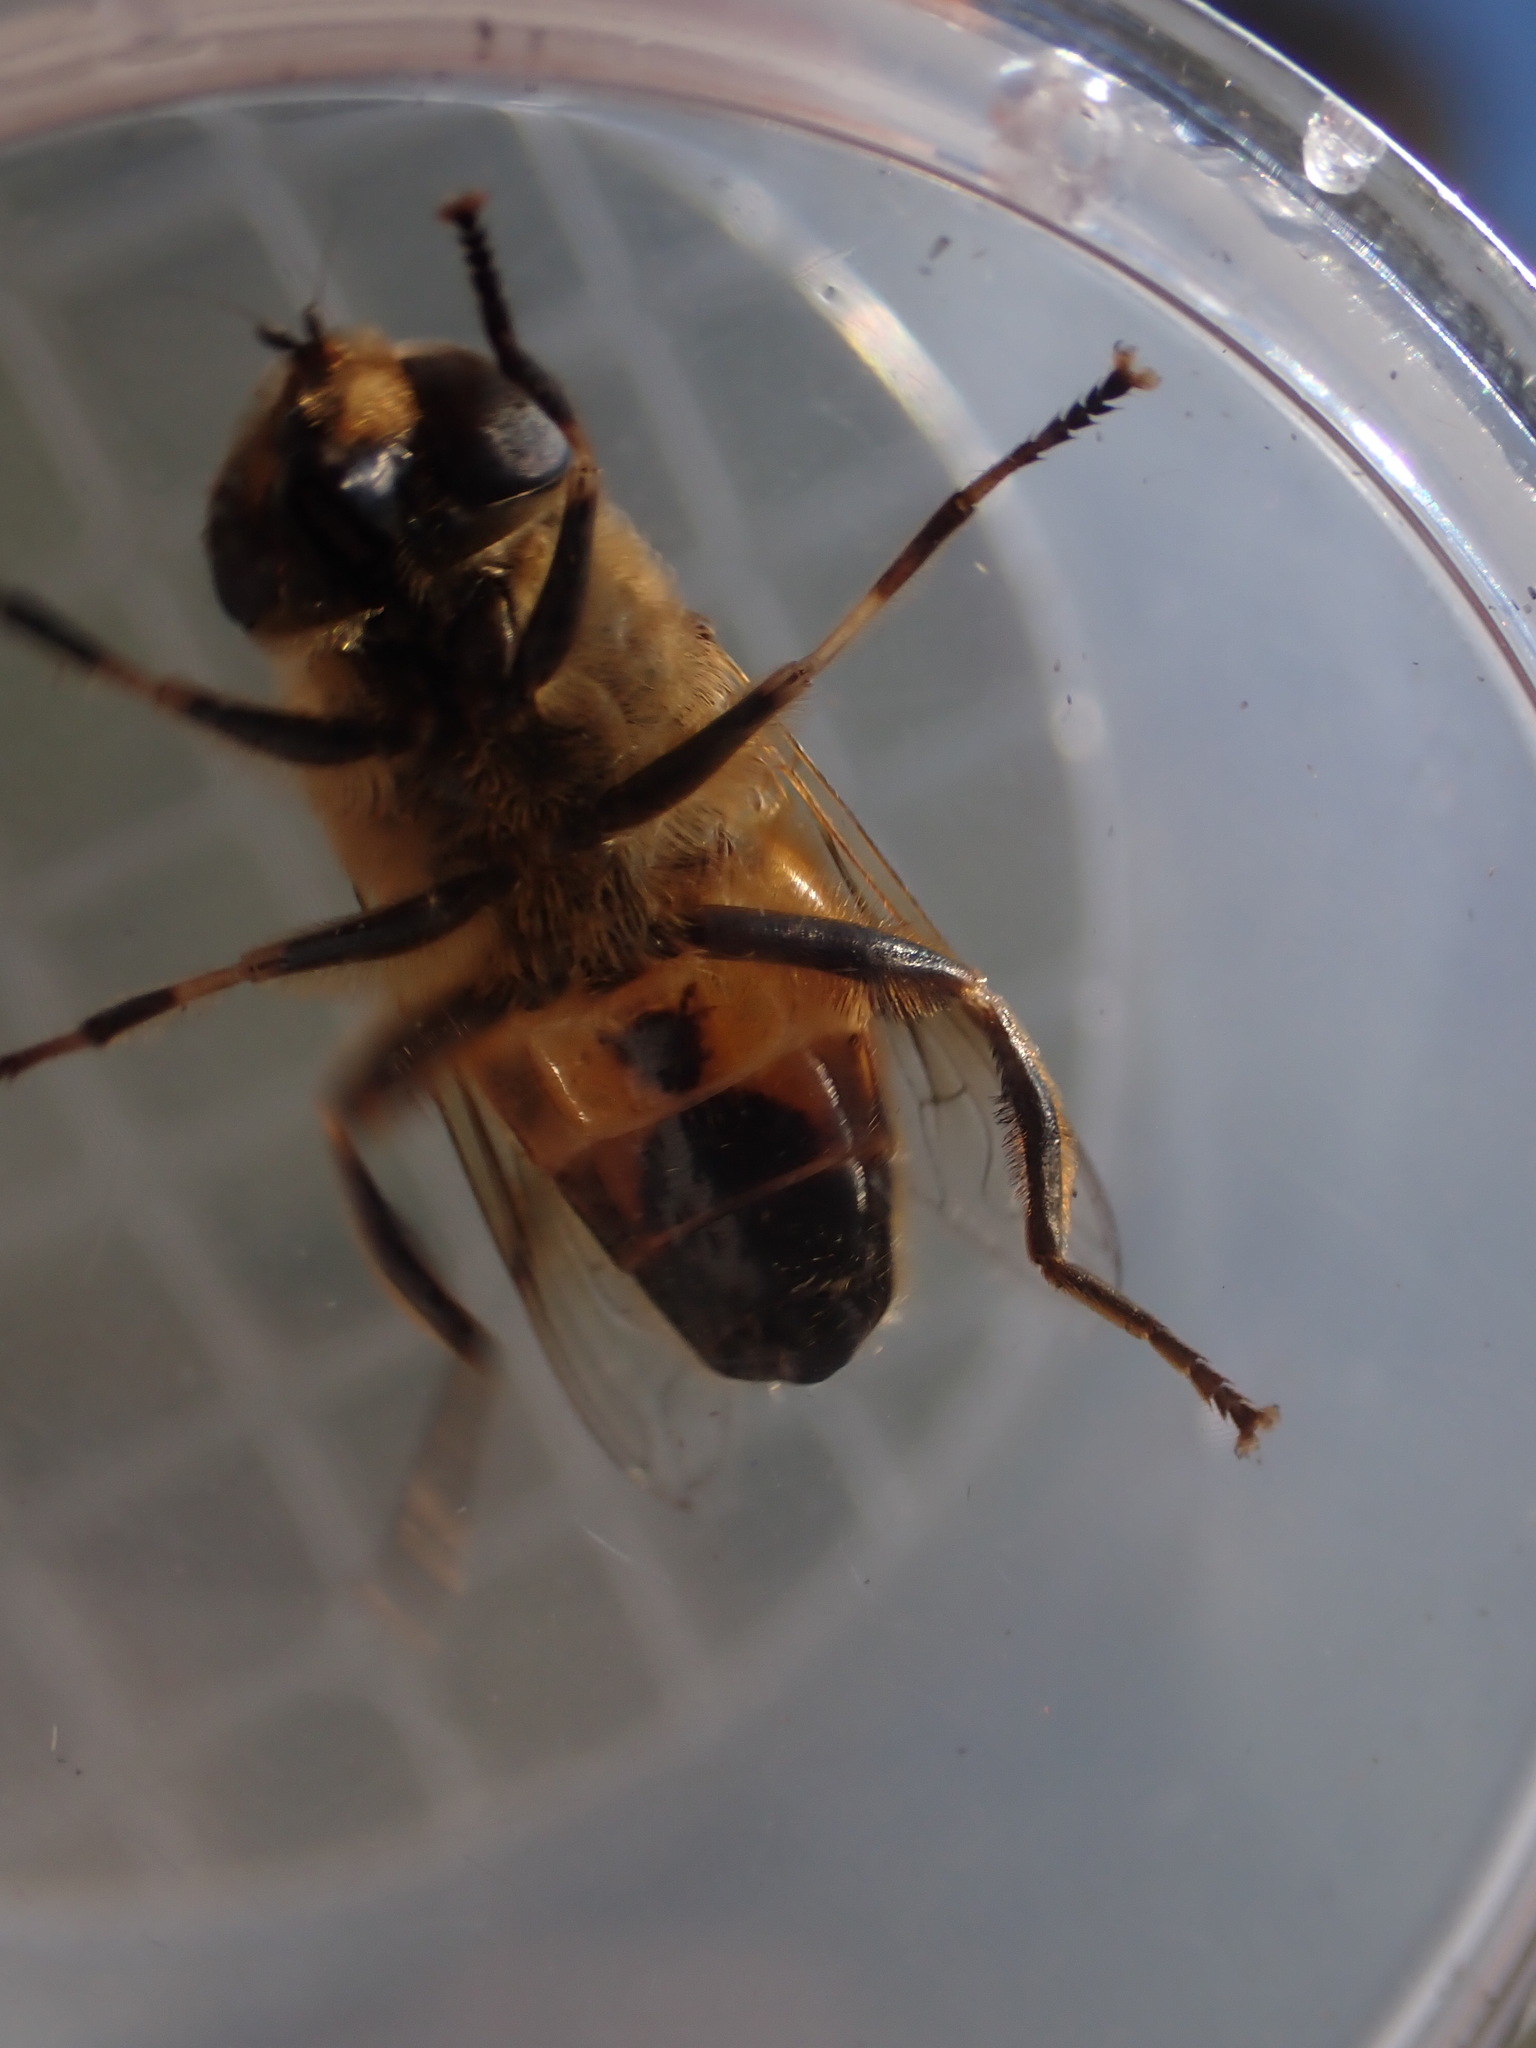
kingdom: Animalia
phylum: Arthropoda
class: Insecta
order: Diptera
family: Syrphidae
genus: Eristalis
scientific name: Eristalis tenax
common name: Drone fly
